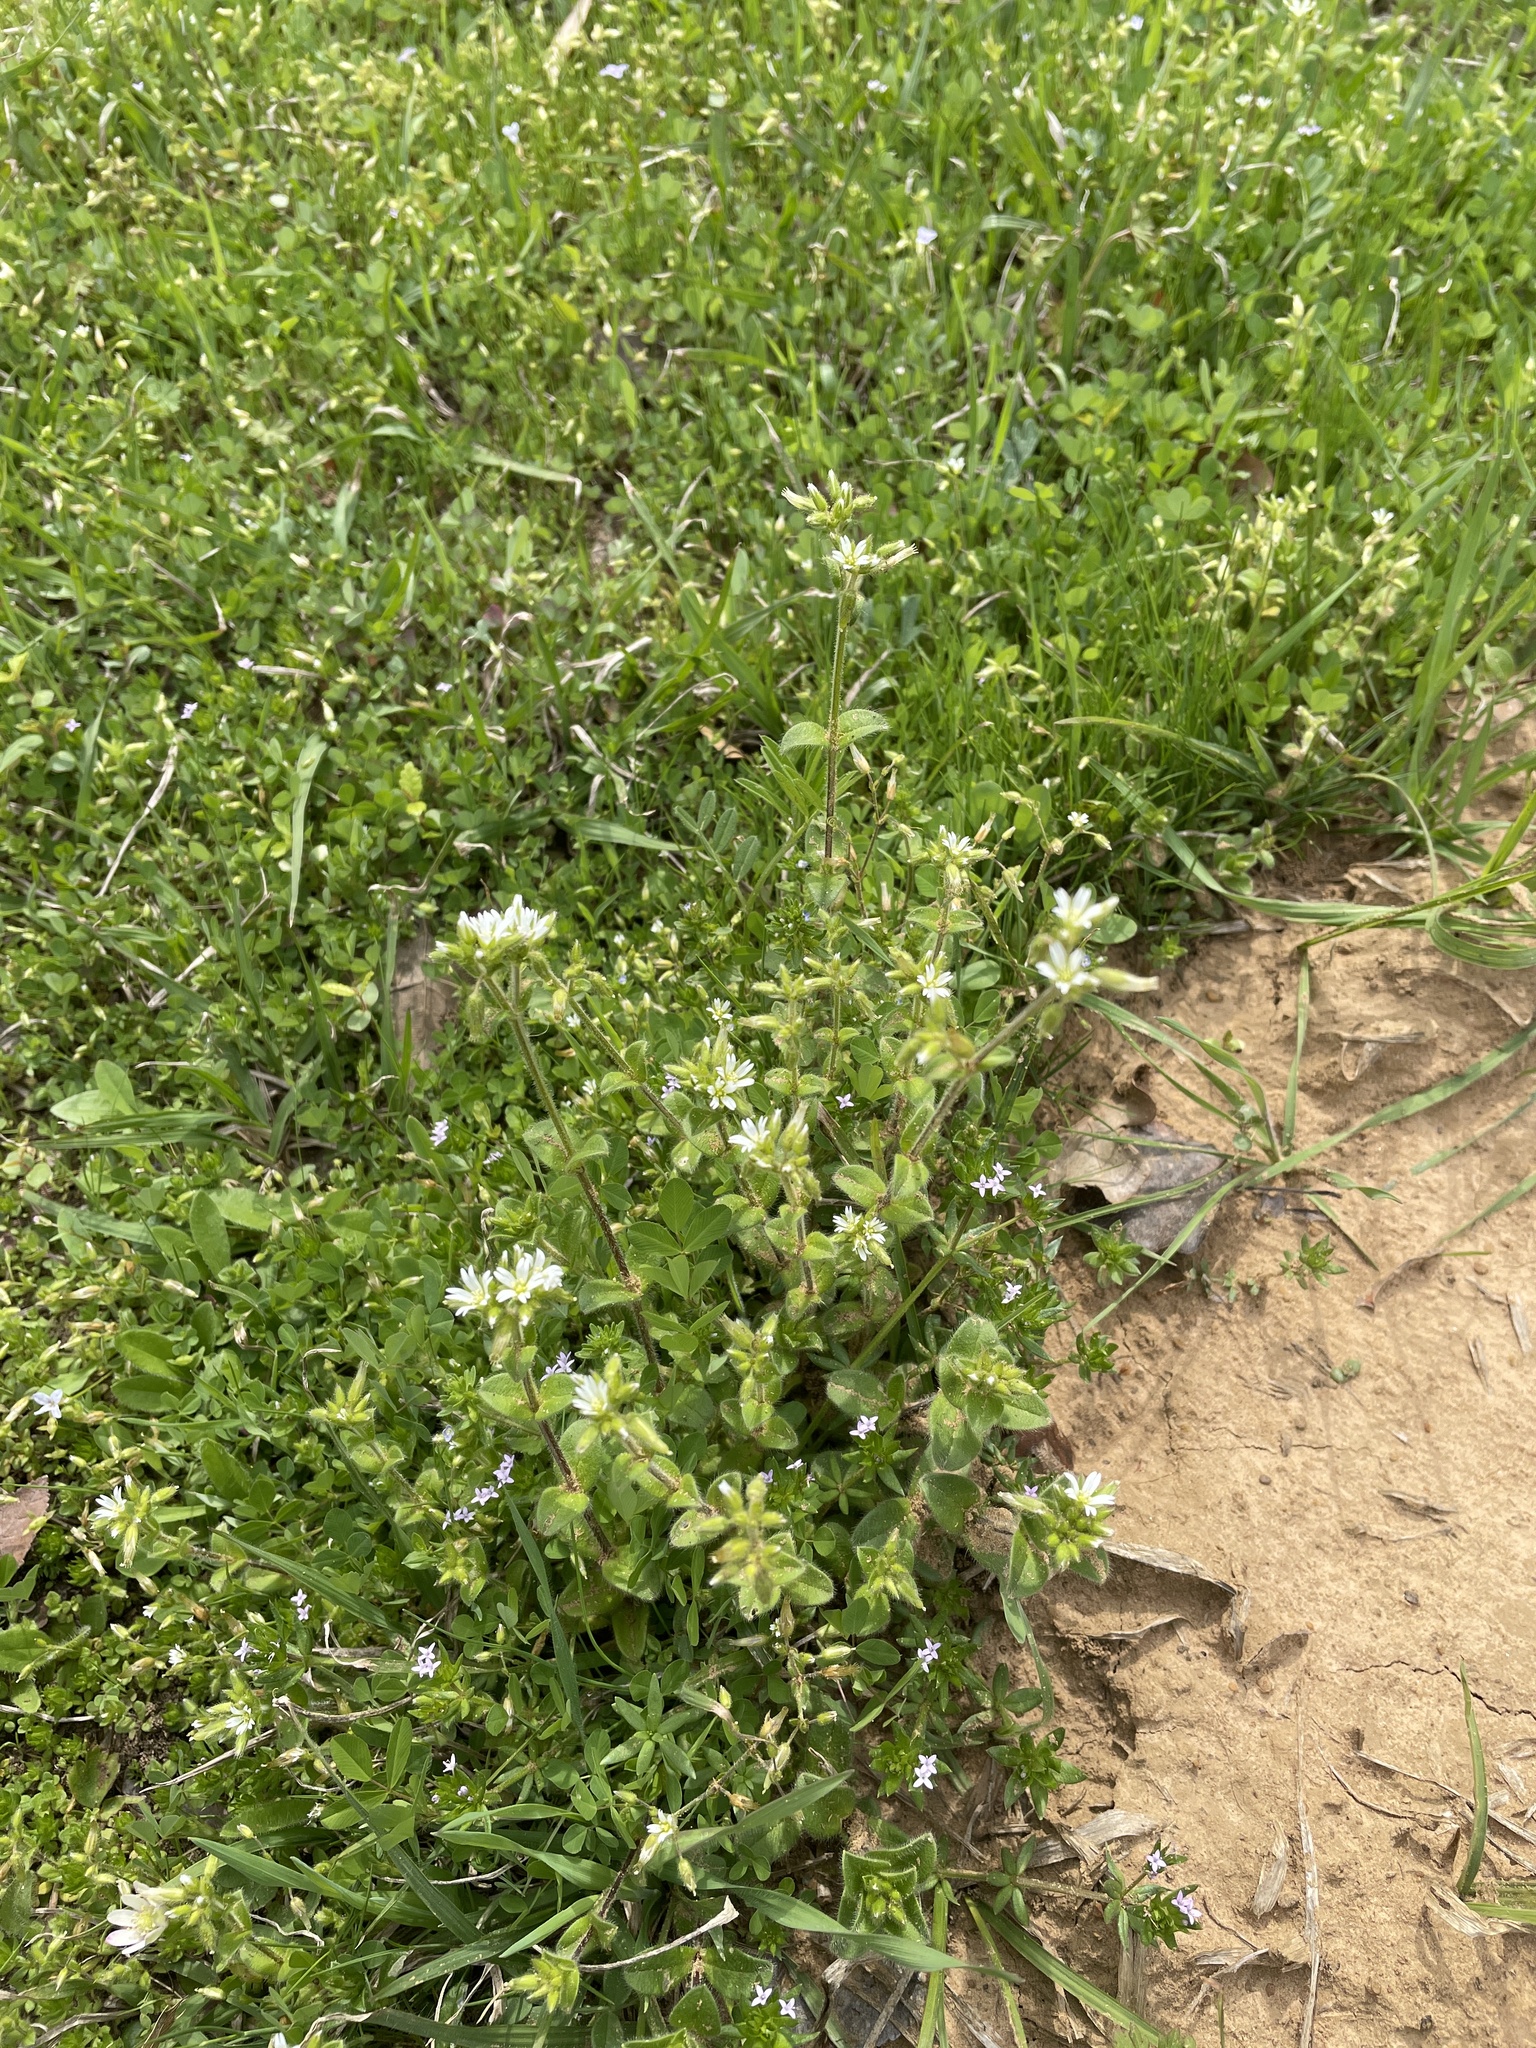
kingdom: Plantae
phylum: Tracheophyta
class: Magnoliopsida
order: Caryophyllales
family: Caryophyllaceae
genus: Cerastium
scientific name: Cerastium glomeratum
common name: Sticky chickweed
